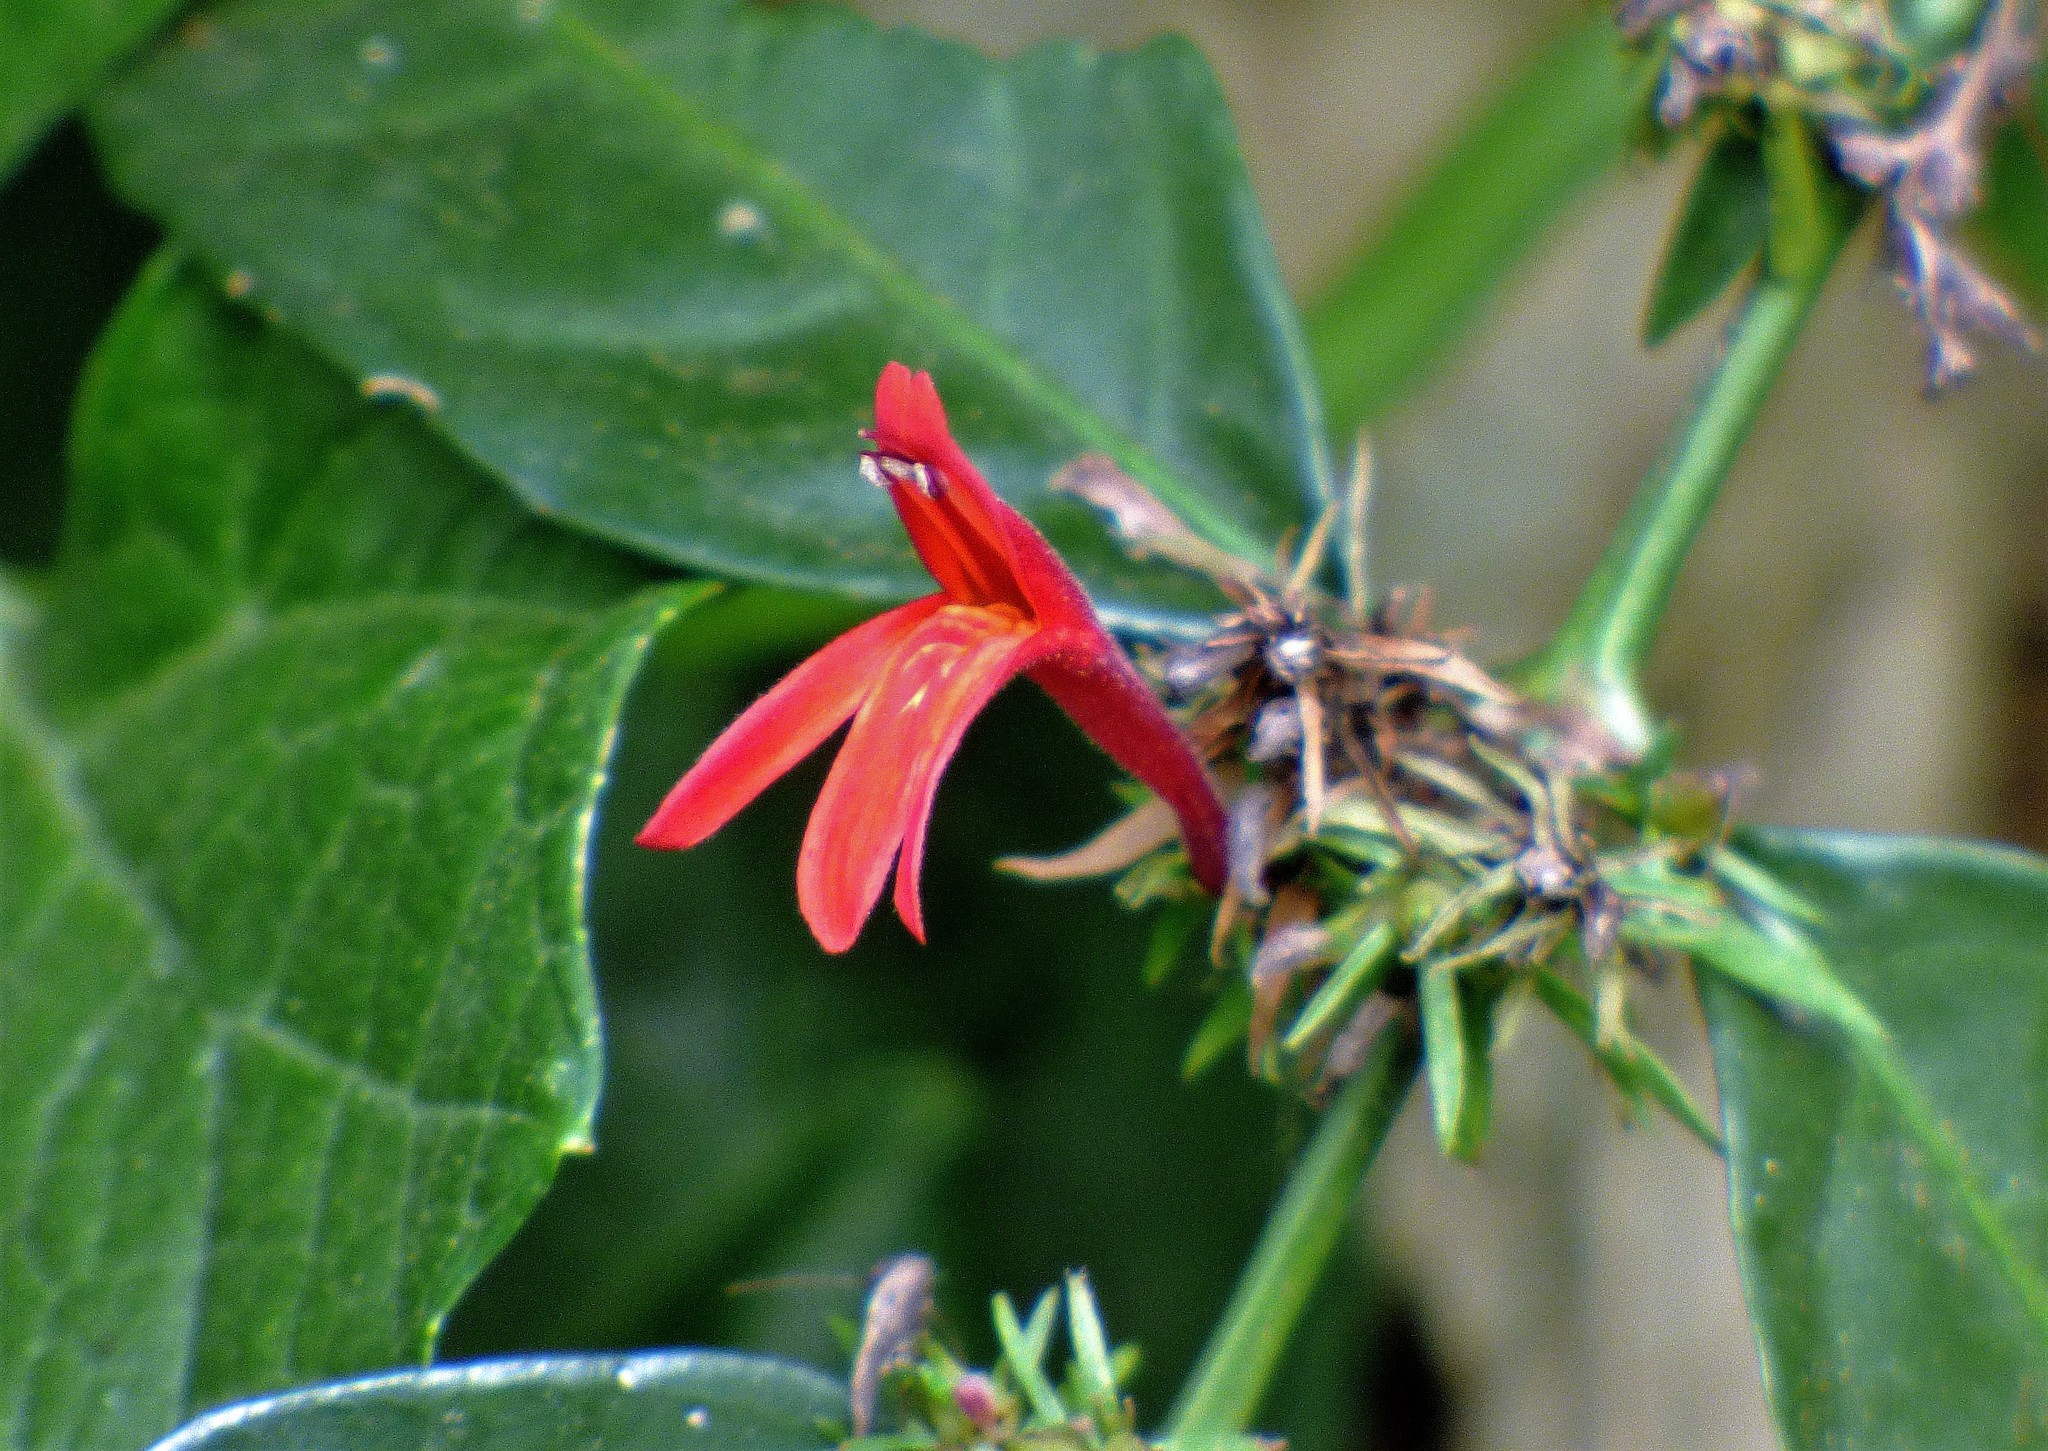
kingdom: Plantae
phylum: Tracheophyta
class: Magnoliopsida
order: Lamiales
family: Acanthaceae
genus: Justicia
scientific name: Justicia brasiliana
